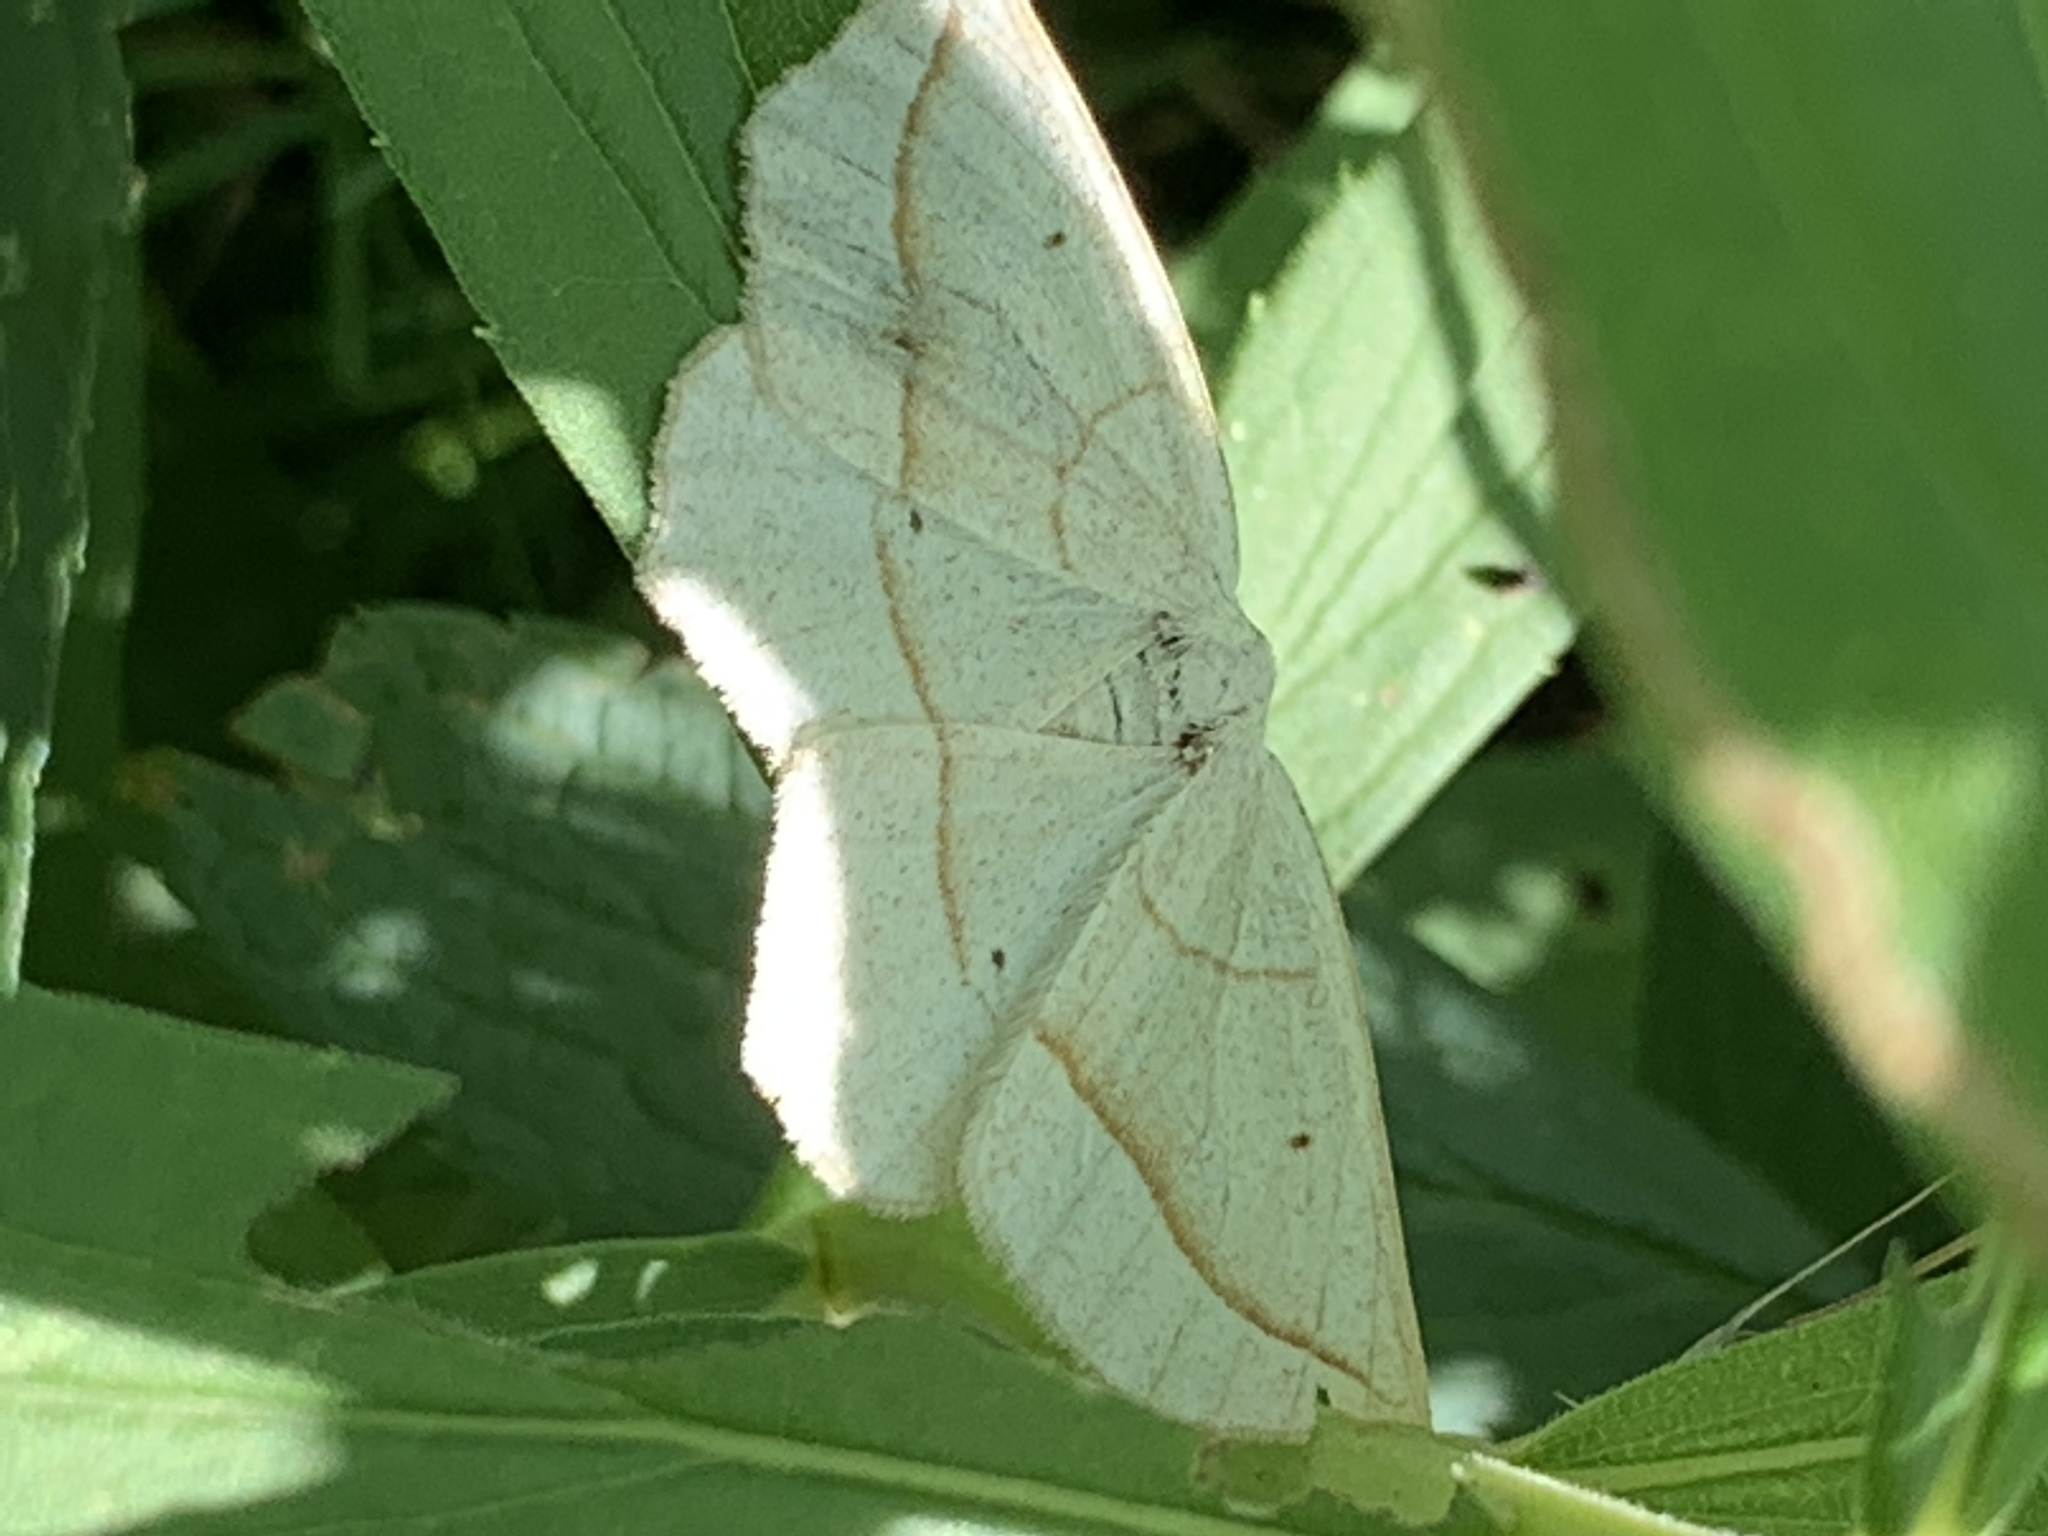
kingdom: Animalia
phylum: Arthropoda
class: Insecta
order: Lepidoptera
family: Geometridae
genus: Eusarca
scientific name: Eusarca confusaria
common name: Confused eusarca
